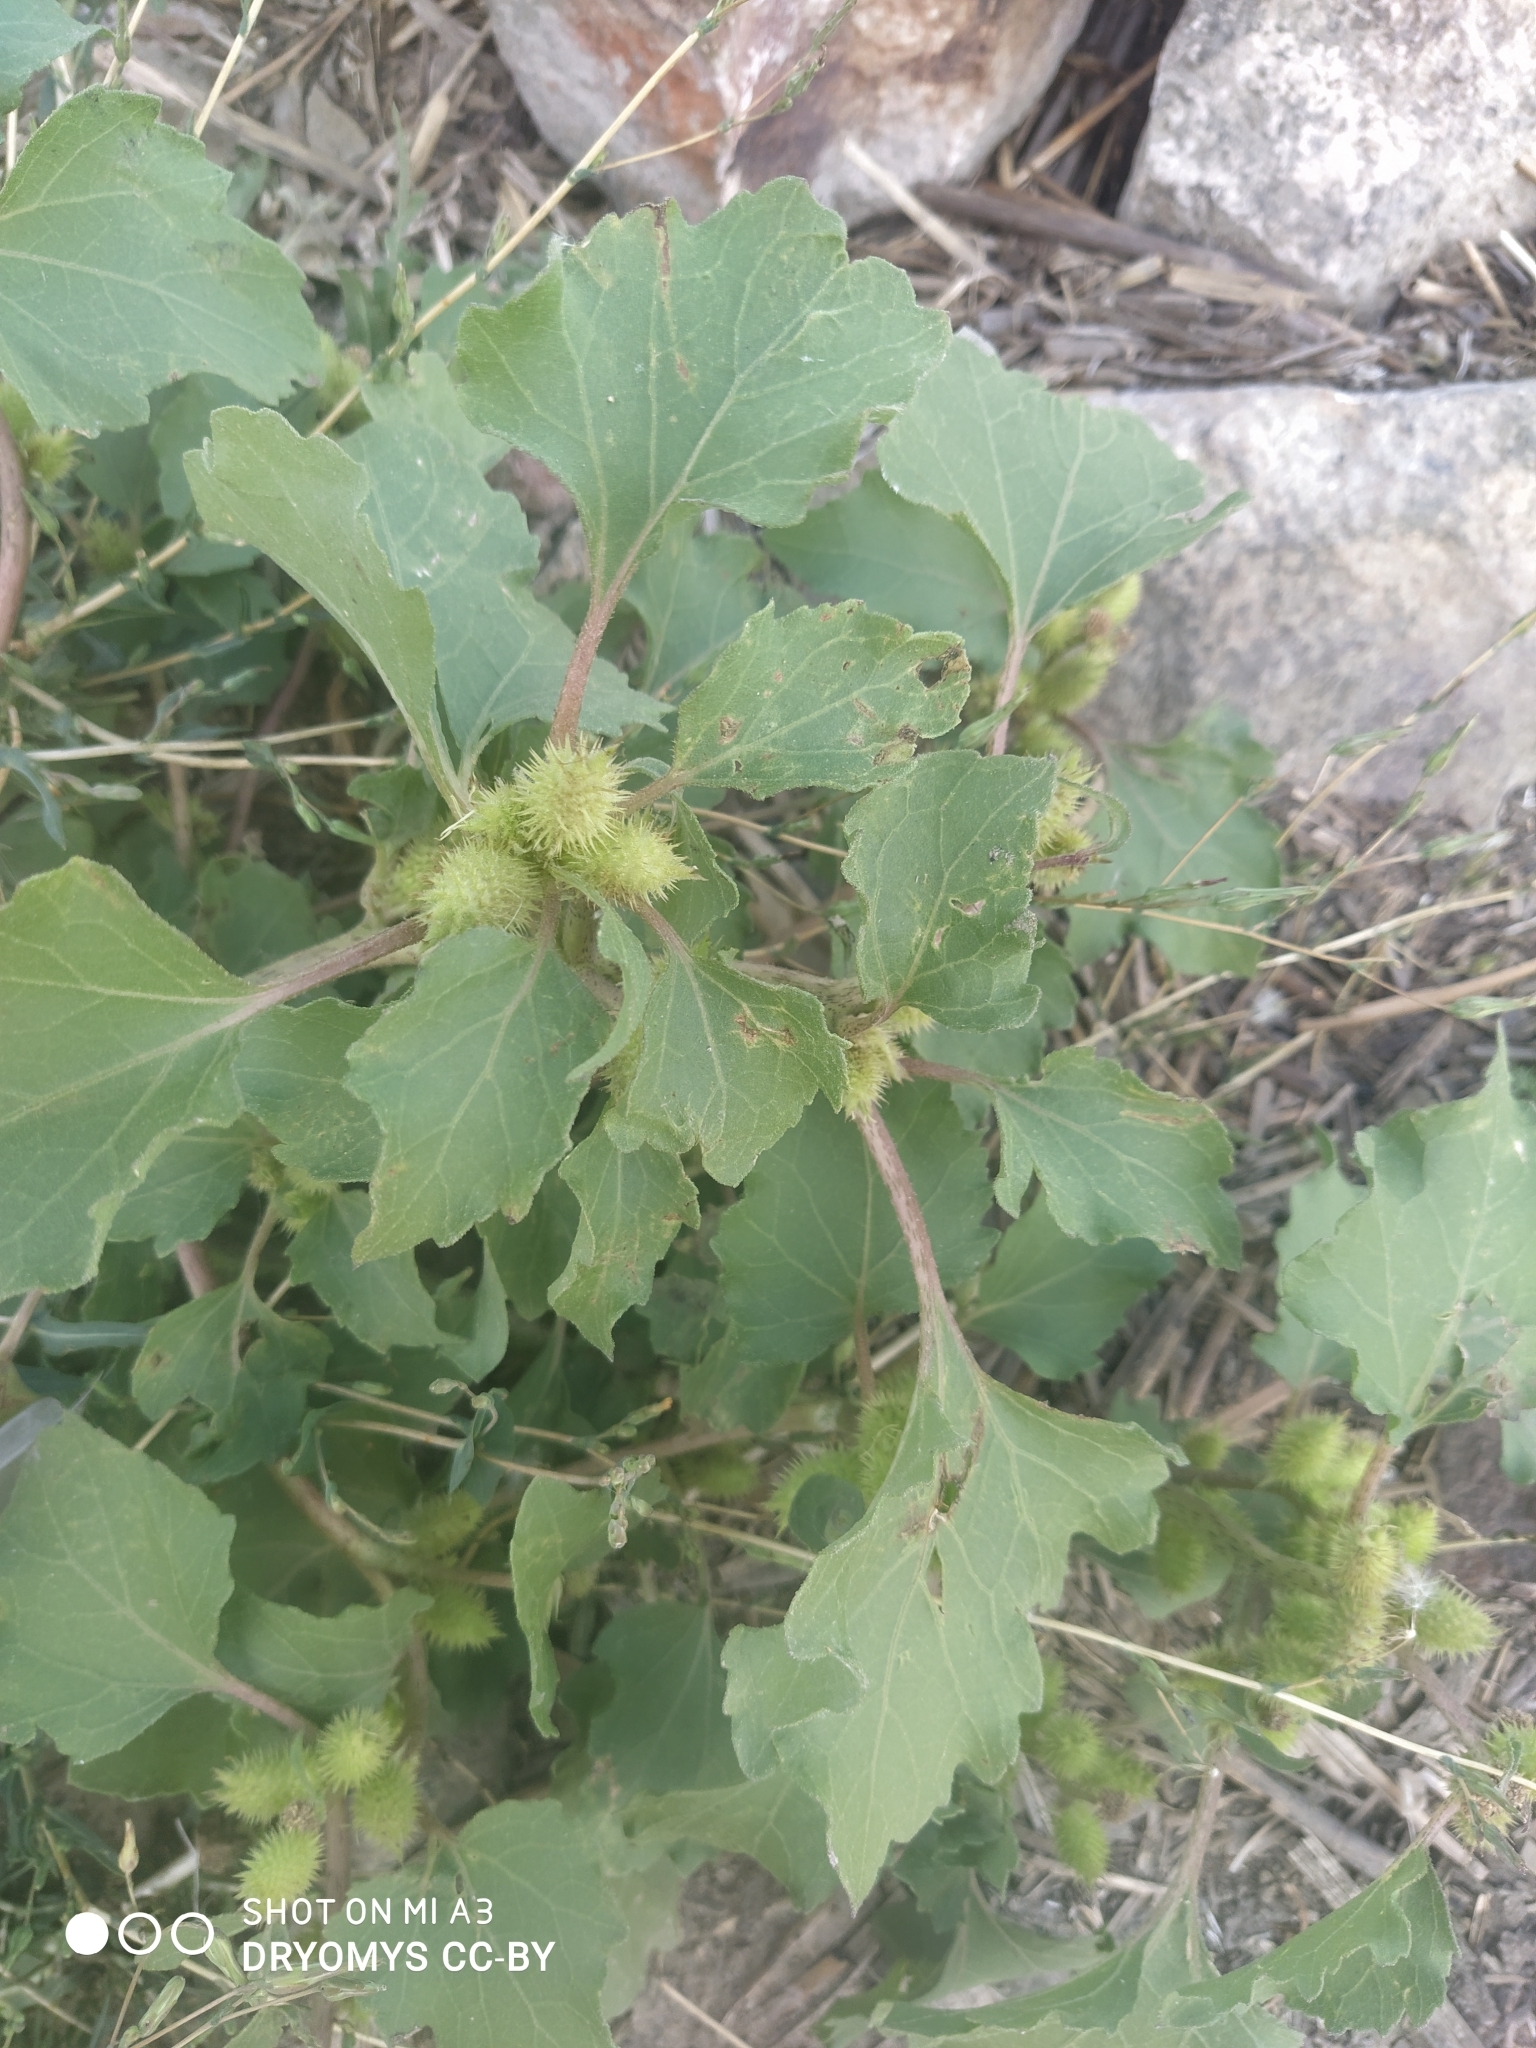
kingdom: Plantae
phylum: Tracheophyta
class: Magnoliopsida
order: Asterales
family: Asteraceae
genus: Xanthium
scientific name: Xanthium orientale
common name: Californian burr
